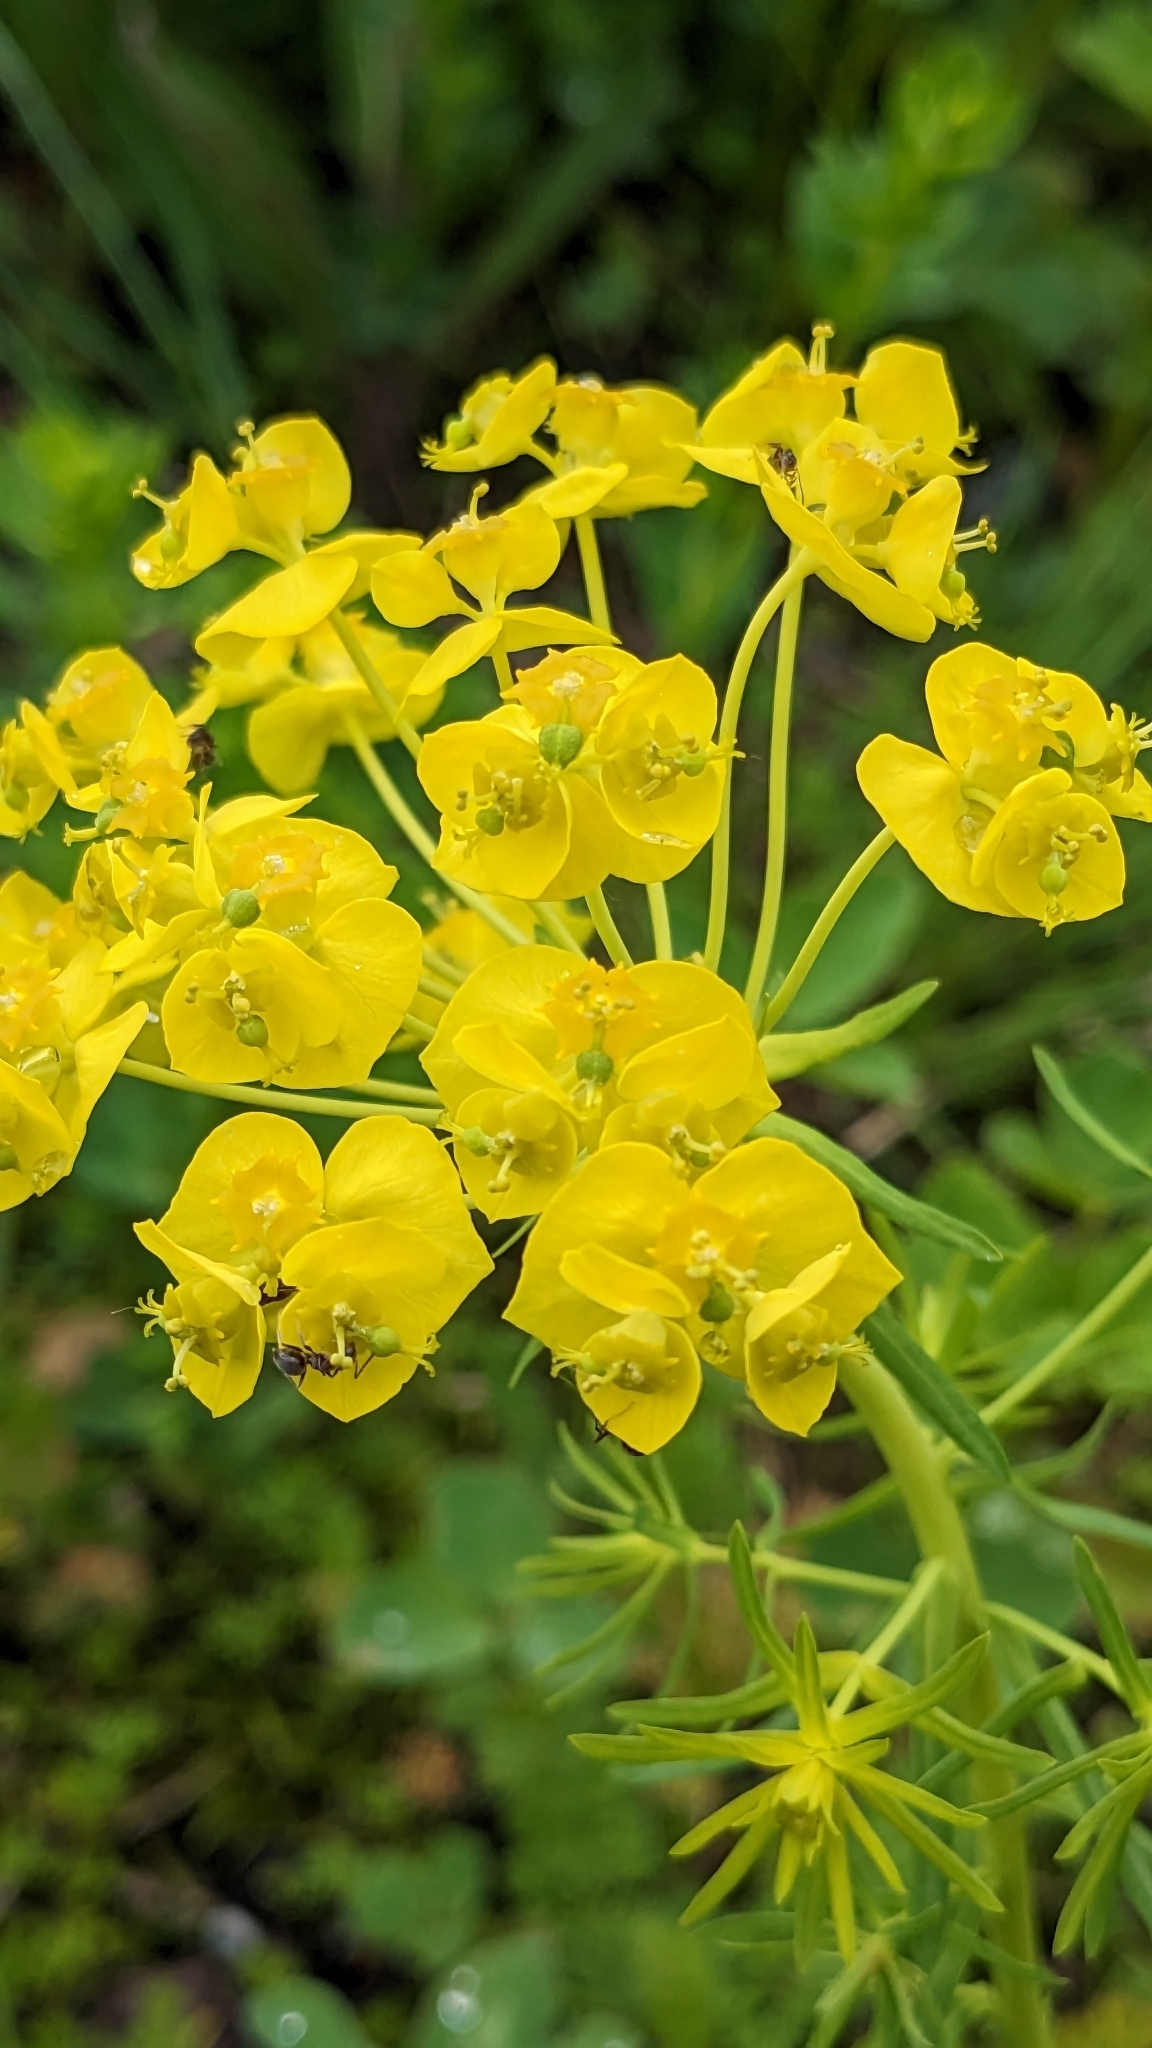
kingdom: Plantae
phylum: Tracheophyta
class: Magnoliopsida
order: Malpighiales
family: Euphorbiaceae
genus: Euphorbia
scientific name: Euphorbia cyparissias
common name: Cypress spurge
